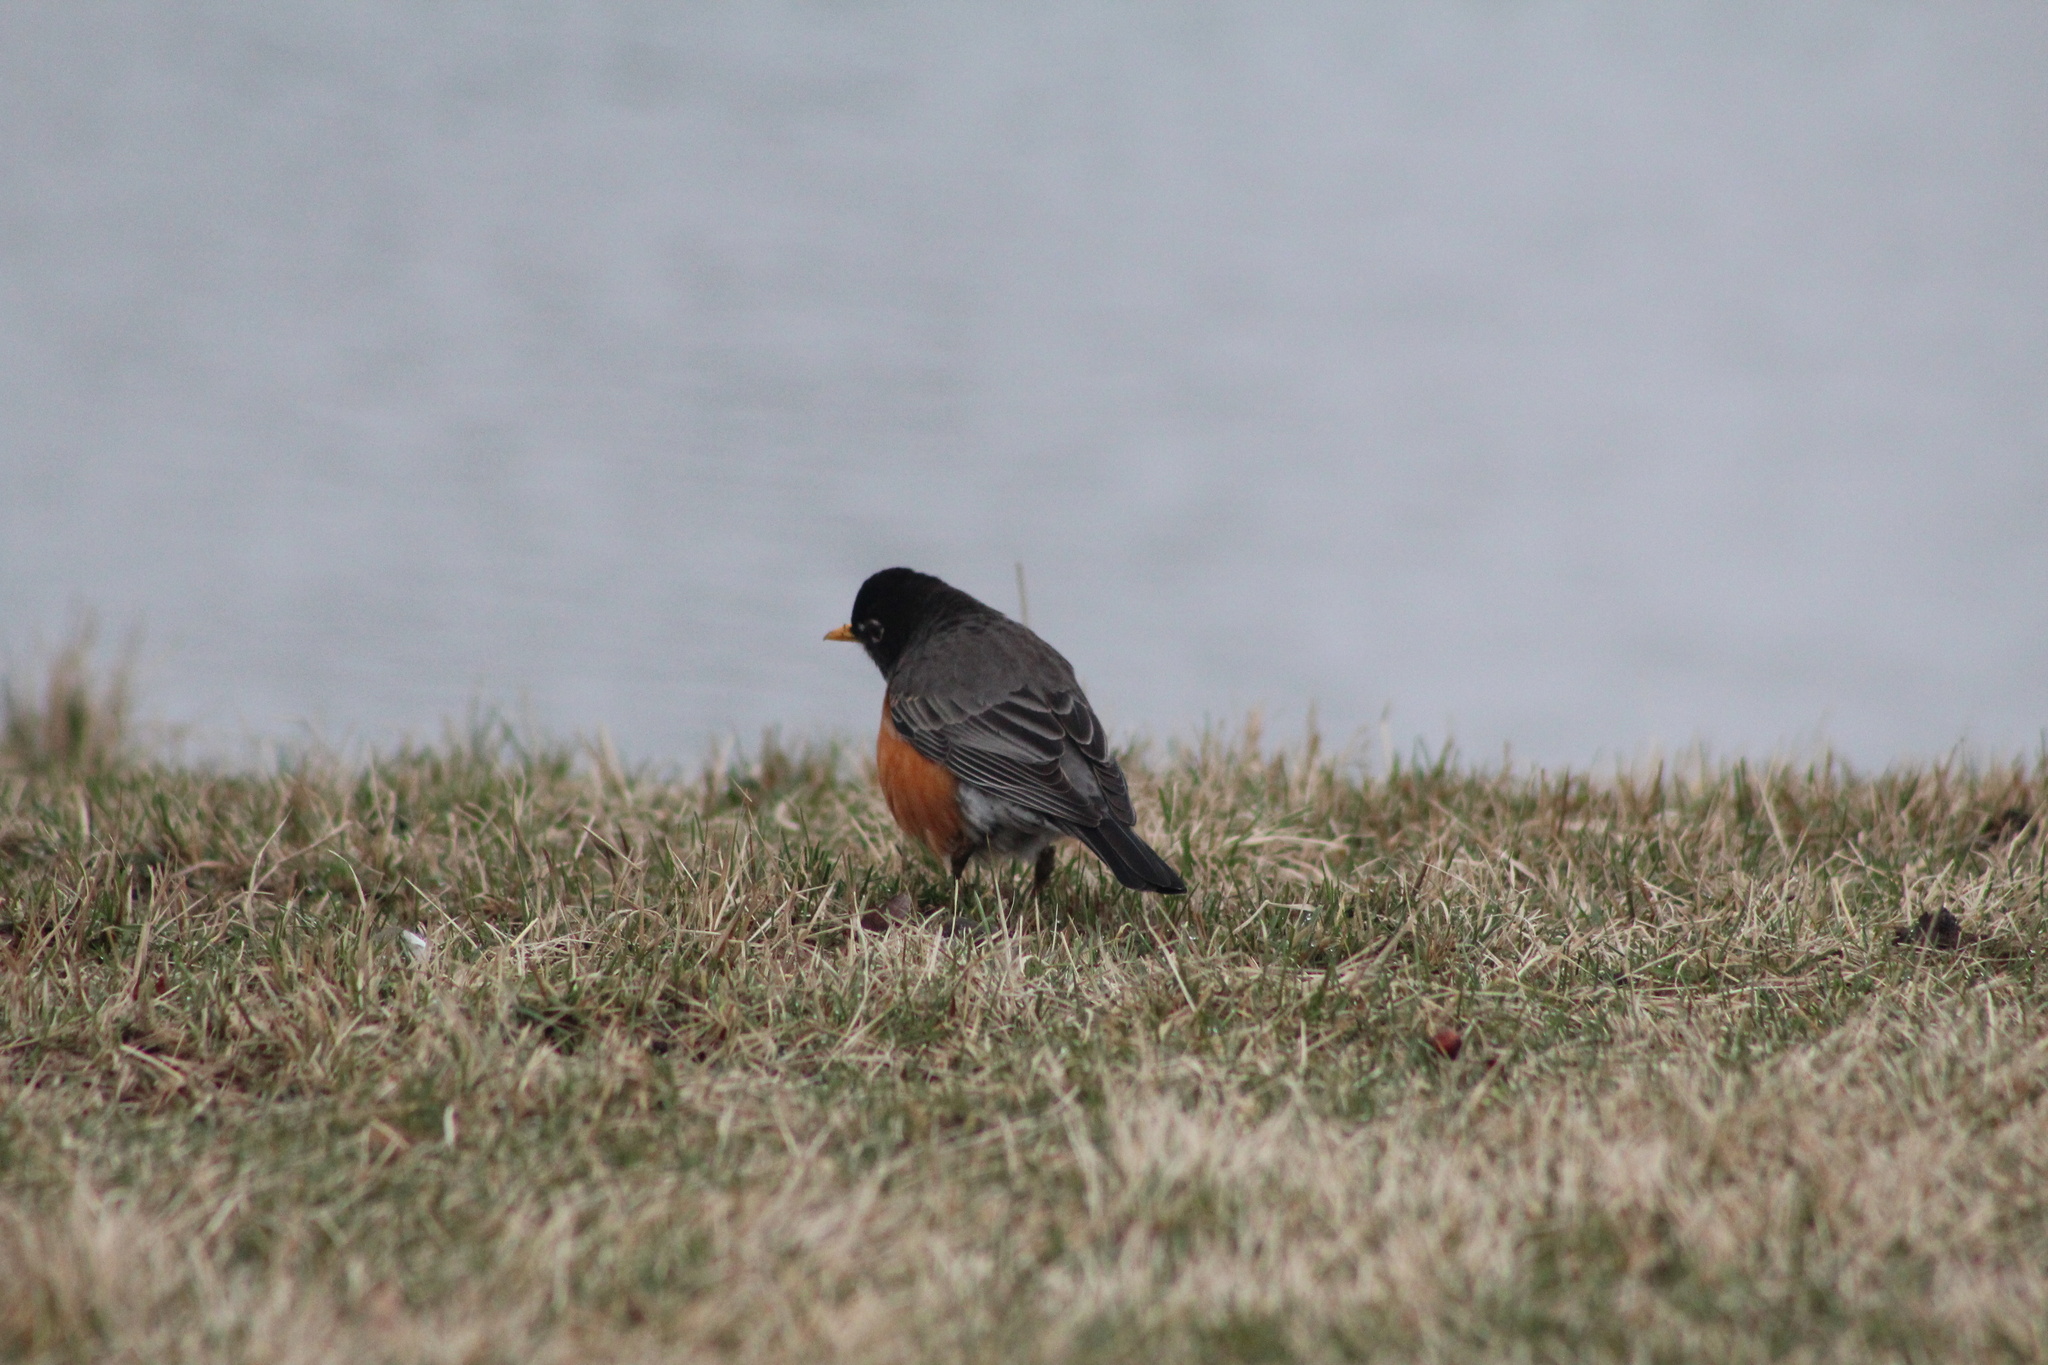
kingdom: Animalia
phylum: Chordata
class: Aves
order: Passeriformes
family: Turdidae
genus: Turdus
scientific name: Turdus migratorius
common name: American robin
